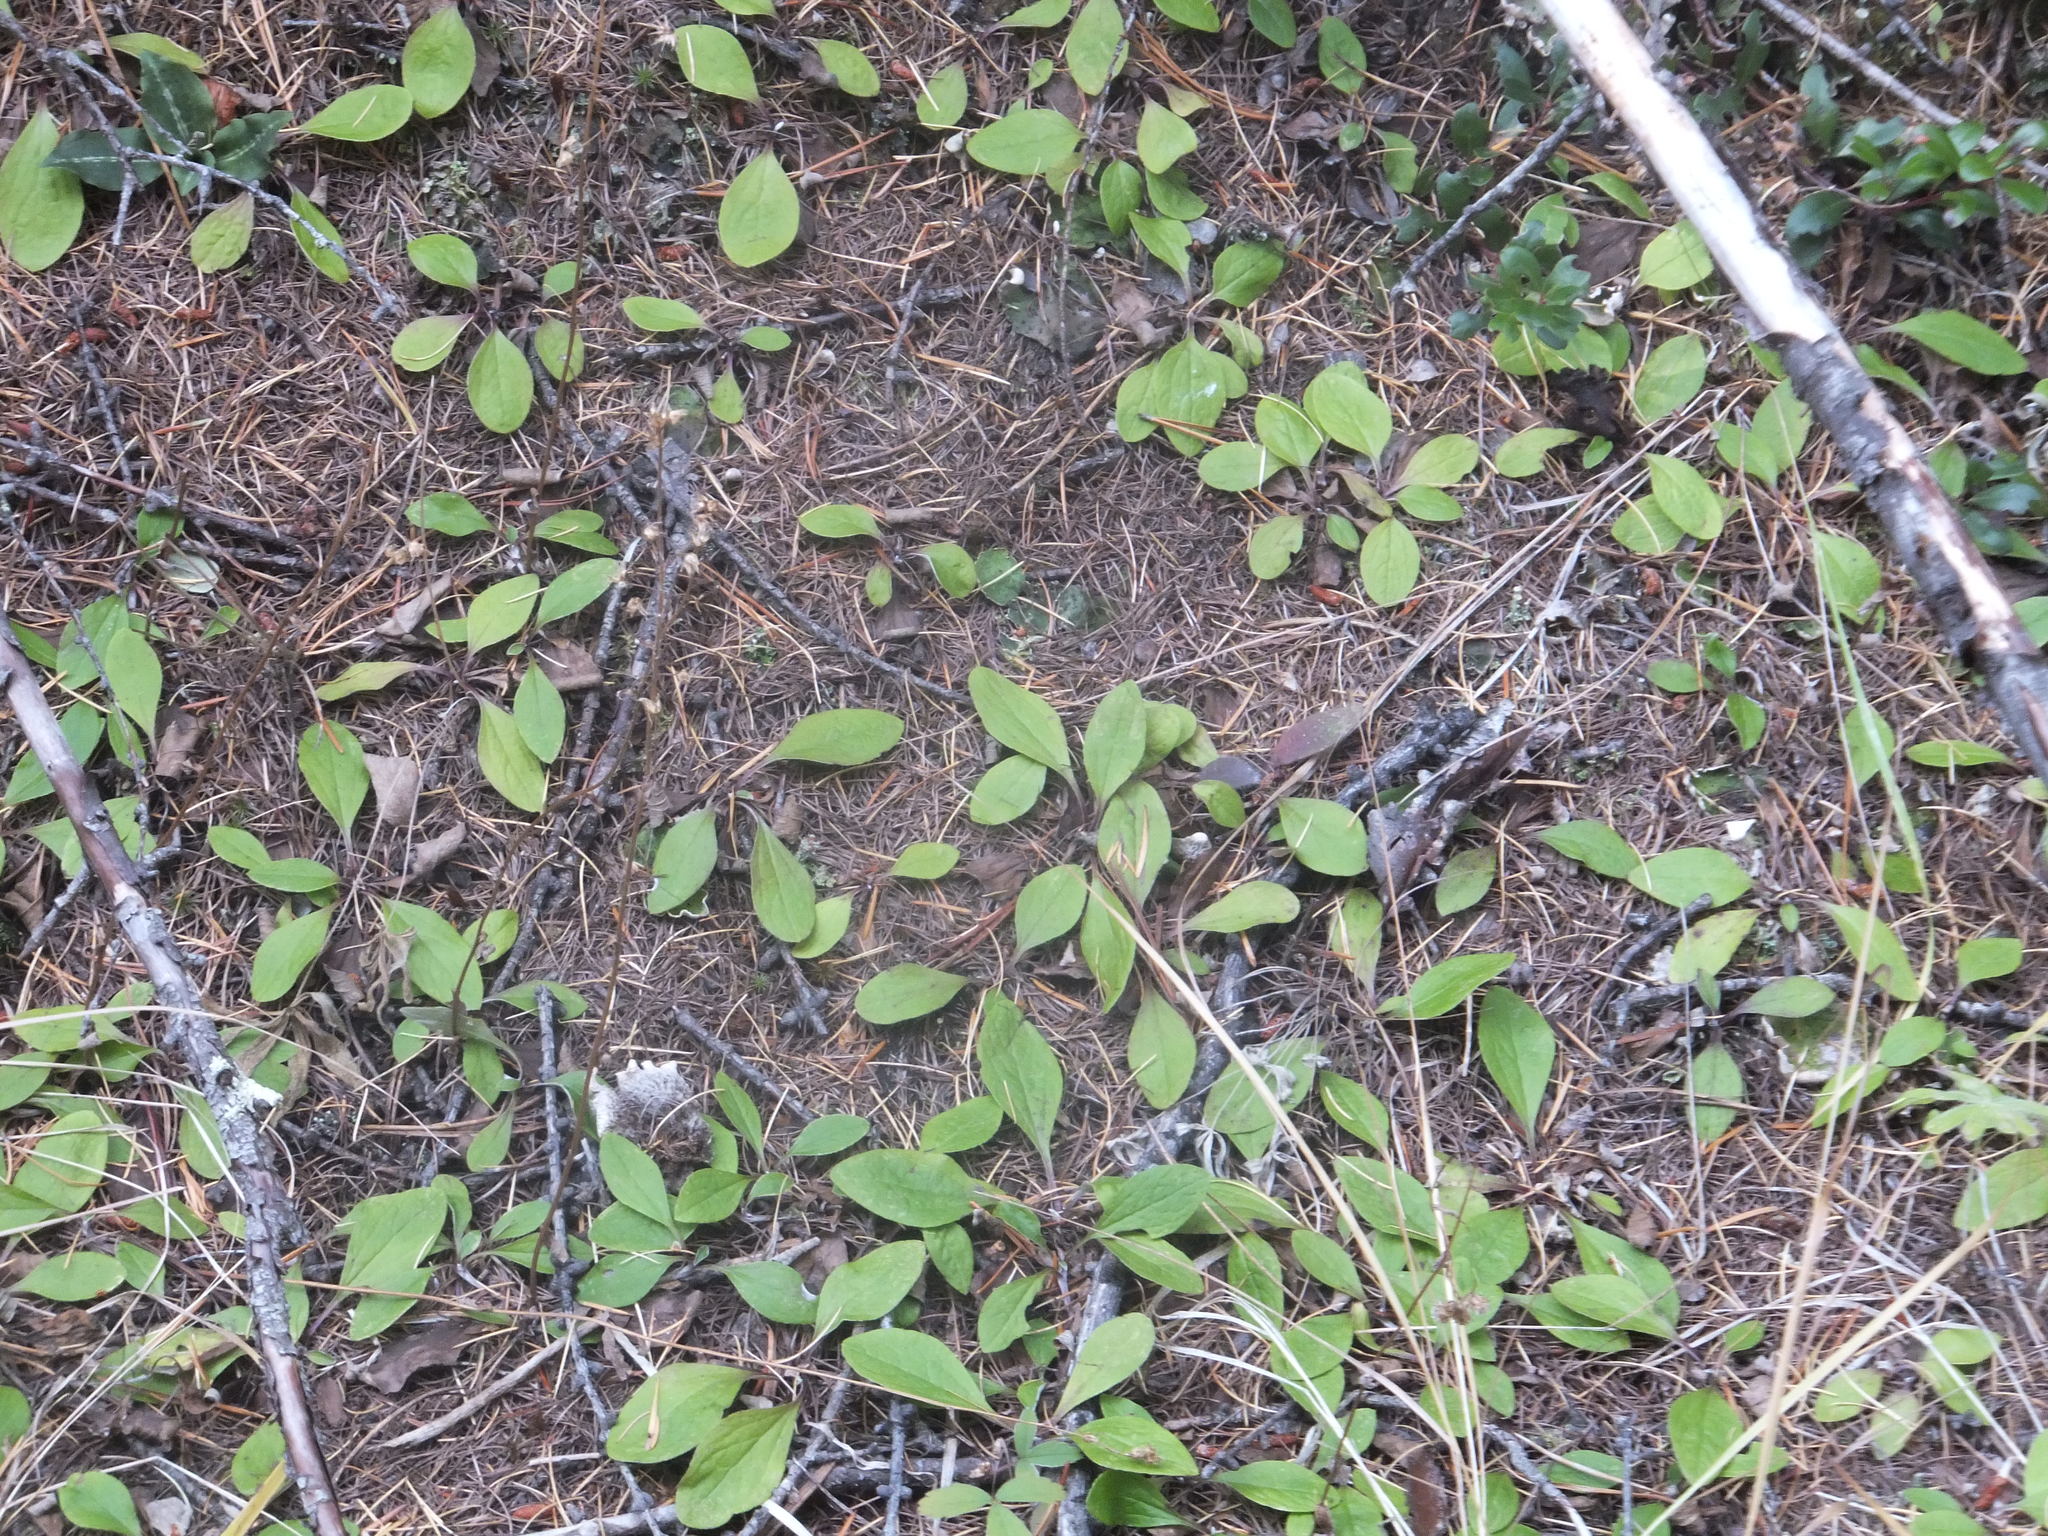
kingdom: Plantae
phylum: Tracheophyta
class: Magnoliopsida
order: Asterales
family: Asteraceae
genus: Antennaria
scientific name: Antennaria racemosa
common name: Racemose pussytoes
